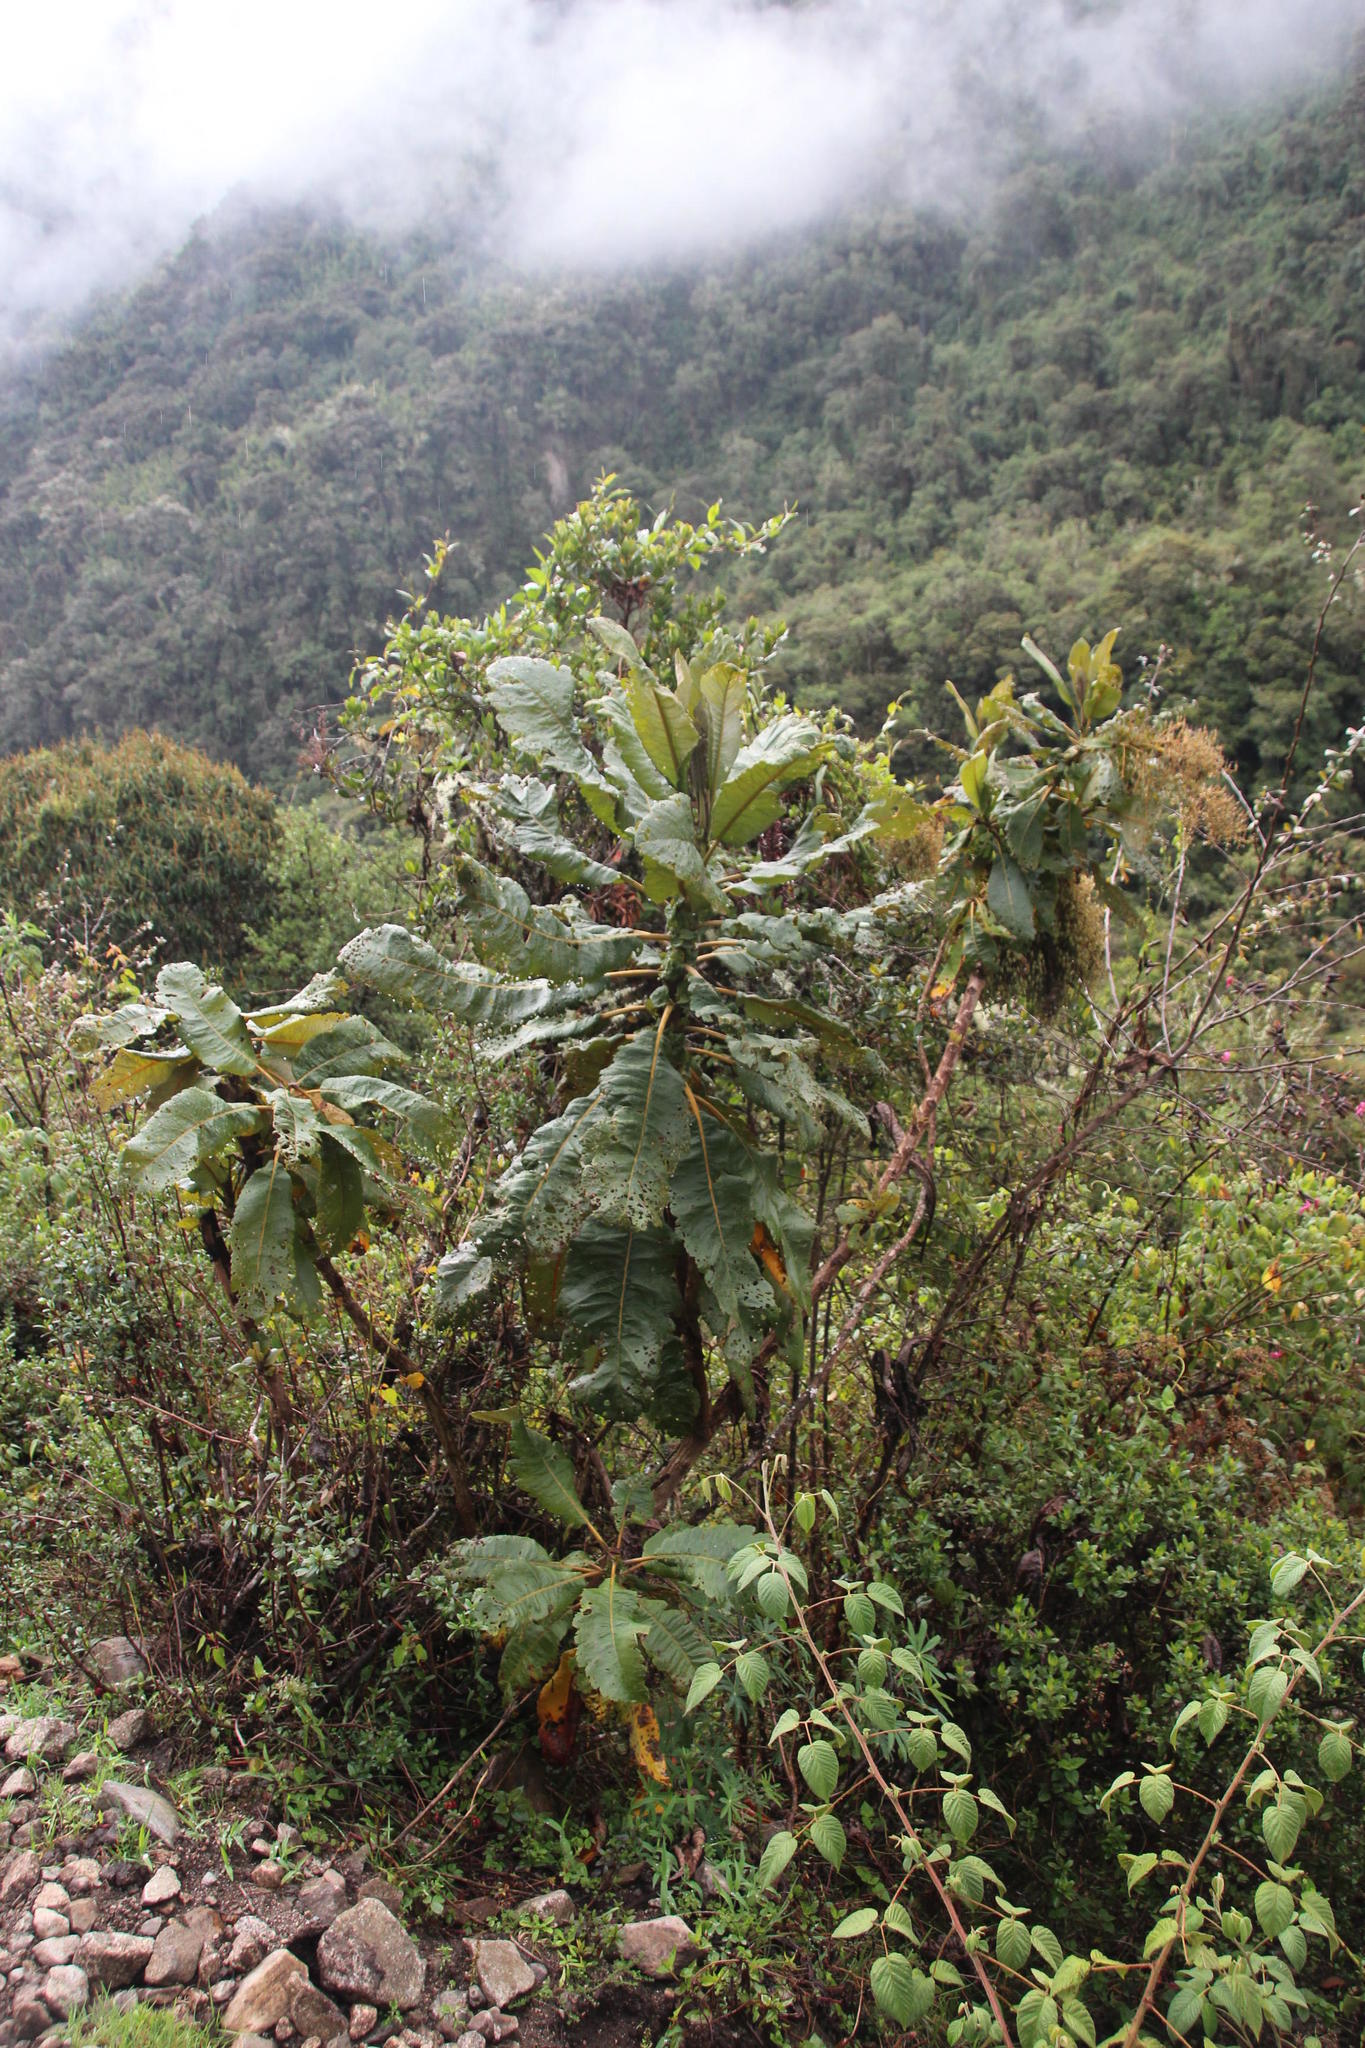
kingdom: Plantae
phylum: Tracheophyta
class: Magnoliopsida
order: Ranunculales
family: Papaveraceae
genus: Bocconia
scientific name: Bocconia integrifolia
